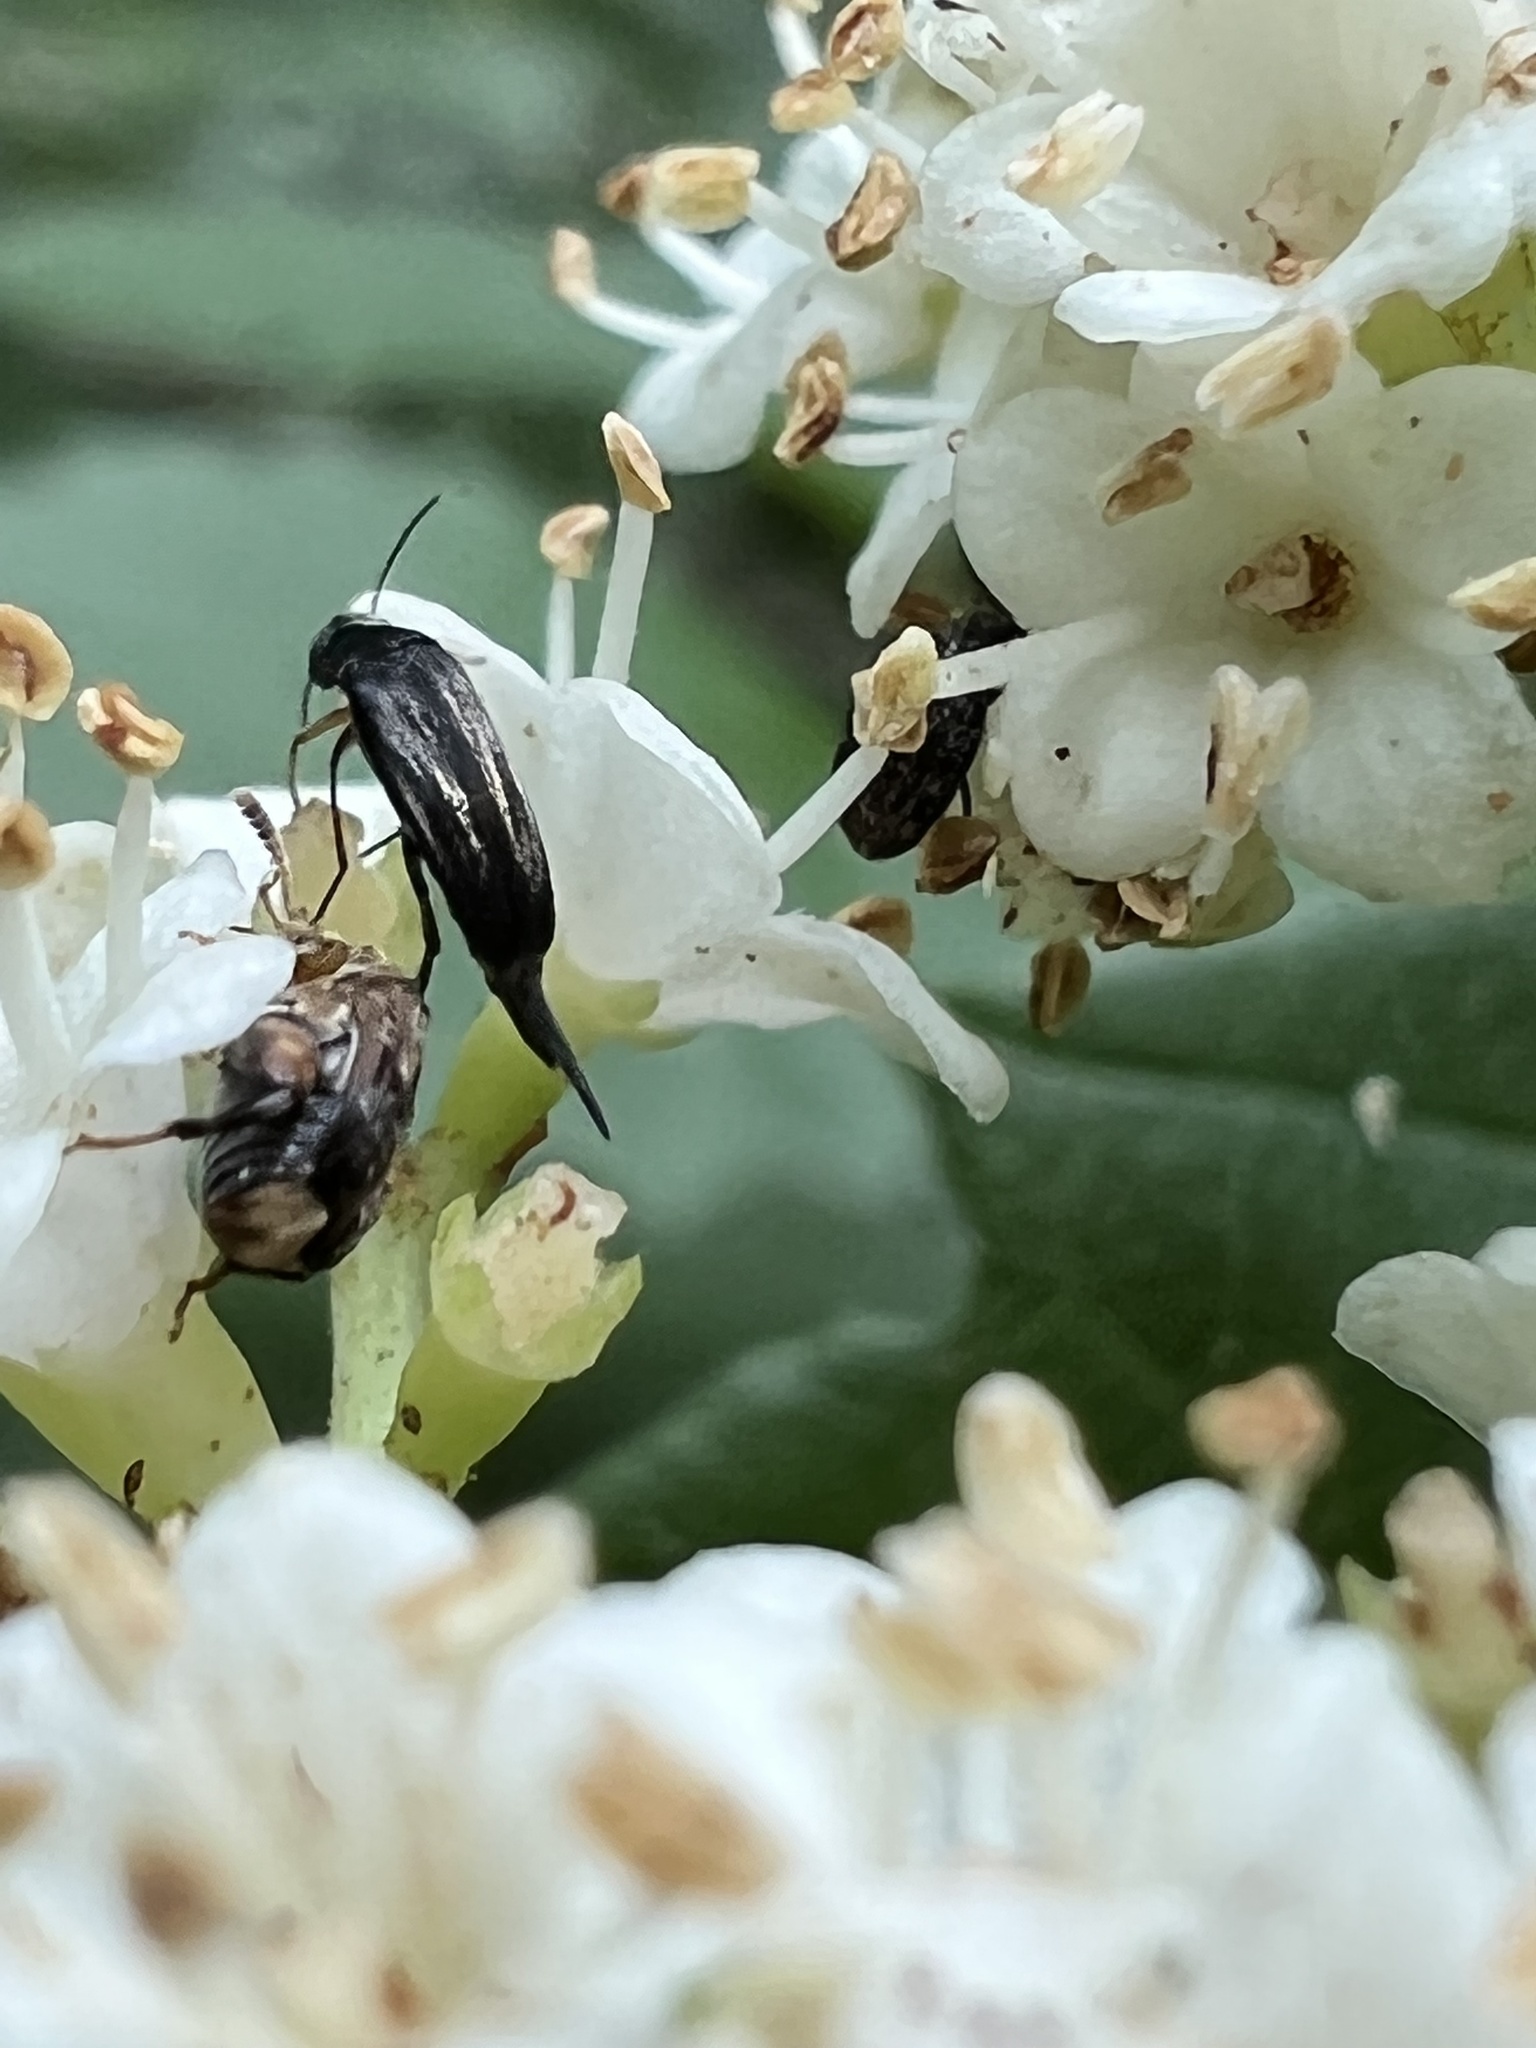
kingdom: Animalia
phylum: Arthropoda
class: Insecta
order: Coleoptera
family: Mordellidae
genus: Mordellistena
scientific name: Mordellistena syntaenia
